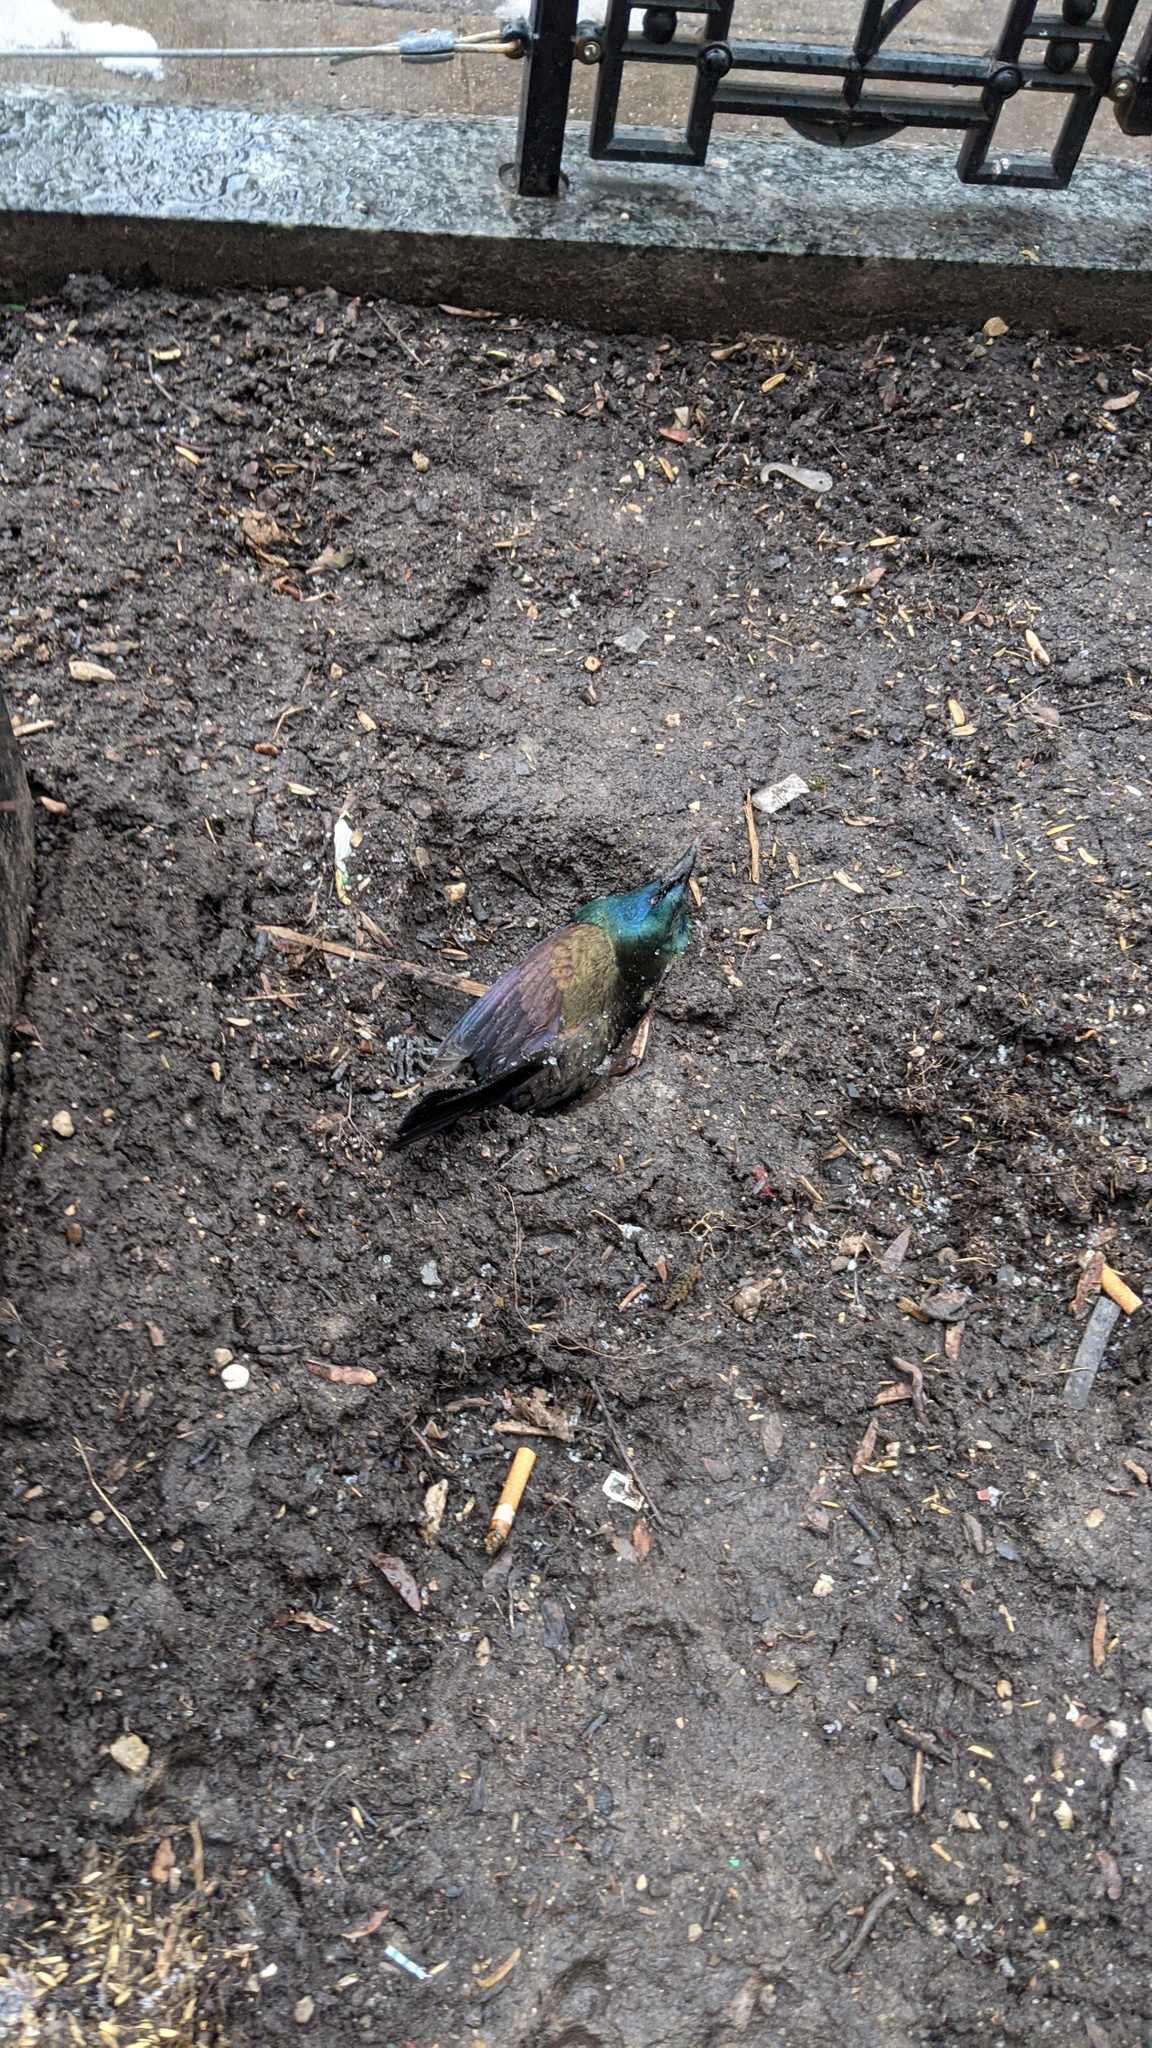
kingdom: Animalia
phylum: Chordata
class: Aves
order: Passeriformes
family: Icteridae
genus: Quiscalus
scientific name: Quiscalus quiscula
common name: Common grackle
